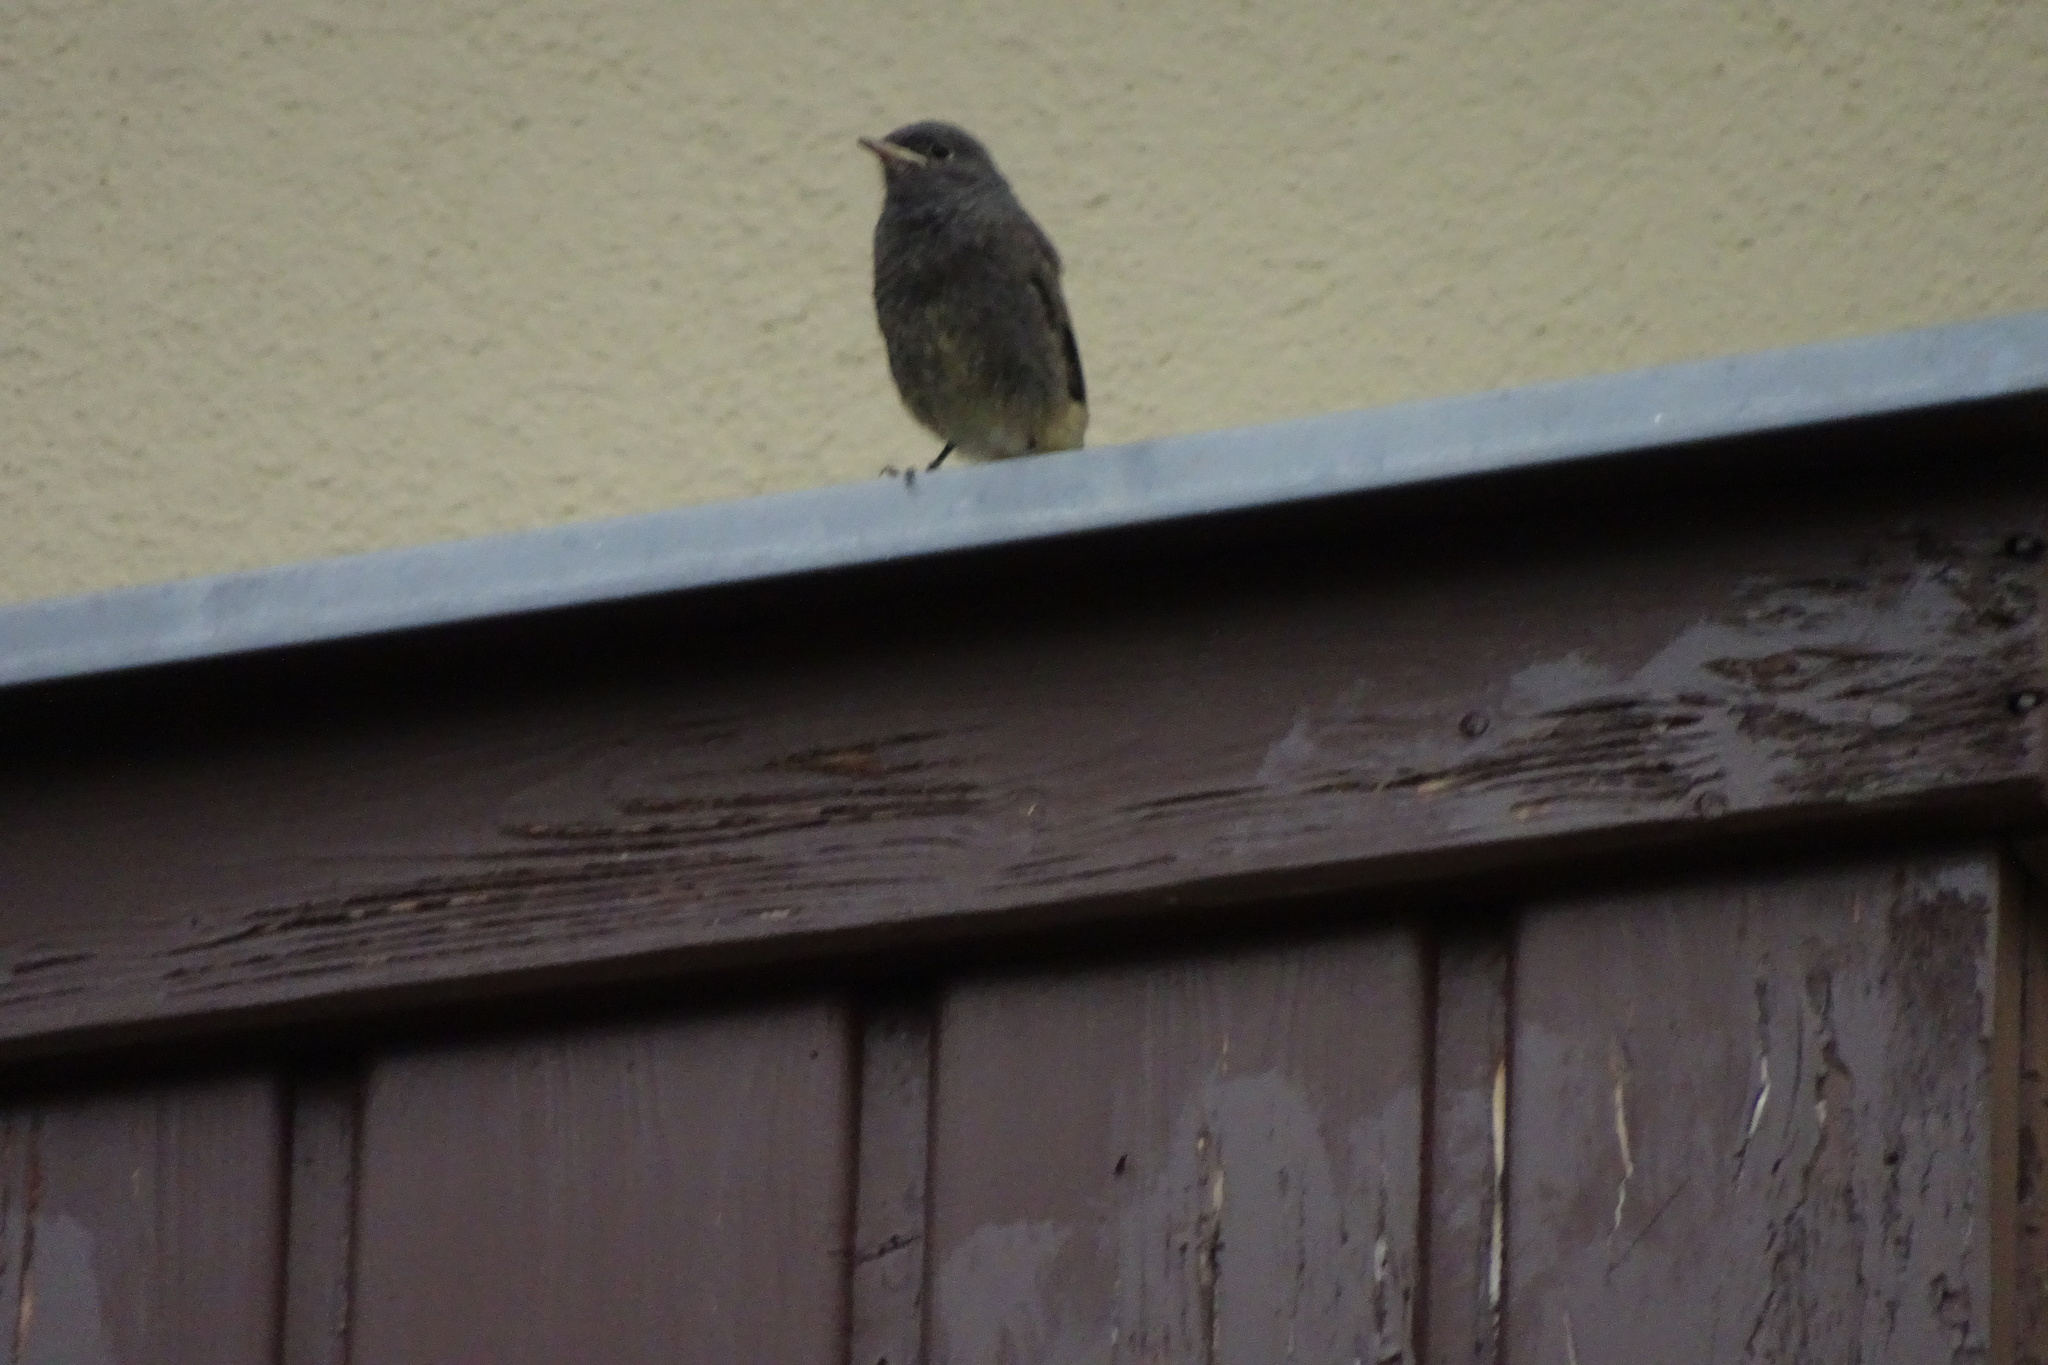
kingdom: Animalia
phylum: Chordata
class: Aves
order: Passeriformes
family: Muscicapidae
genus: Phoenicurus
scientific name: Phoenicurus ochruros
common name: Black redstart
